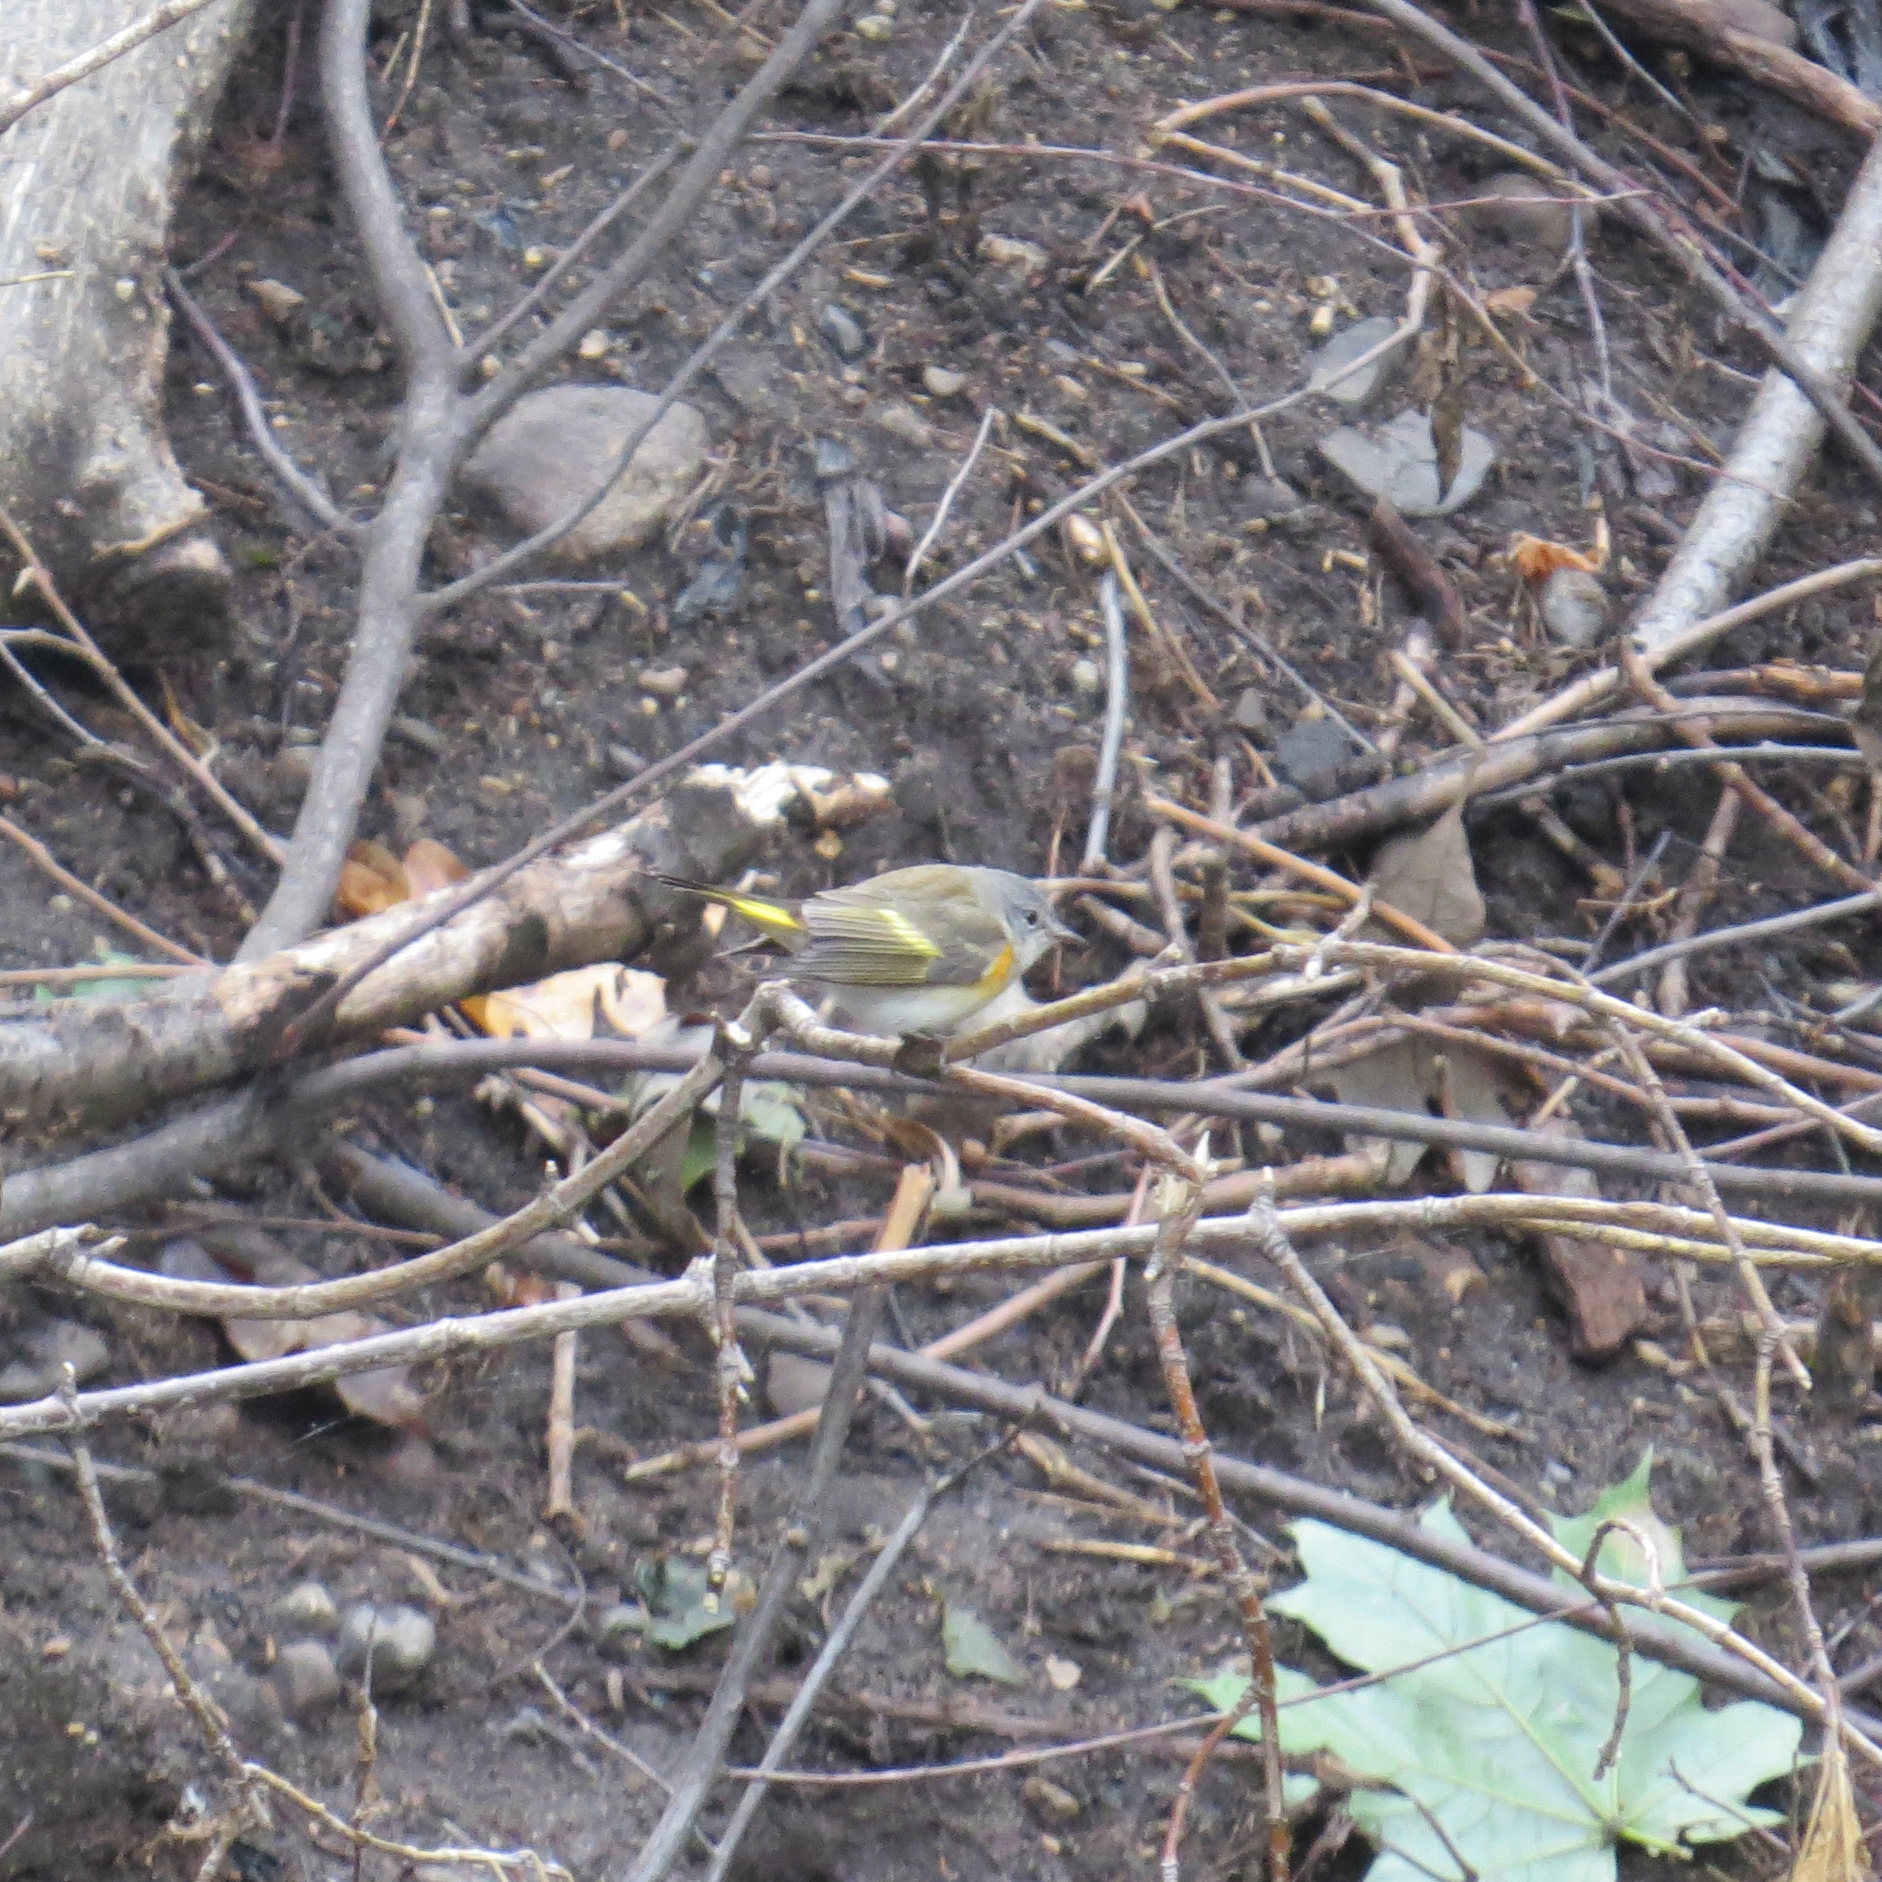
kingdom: Animalia
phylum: Chordata
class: Aves
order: Passeriformes
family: Parulidae
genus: Setophaga
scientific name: Setophaga ruticilla
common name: American redstart
